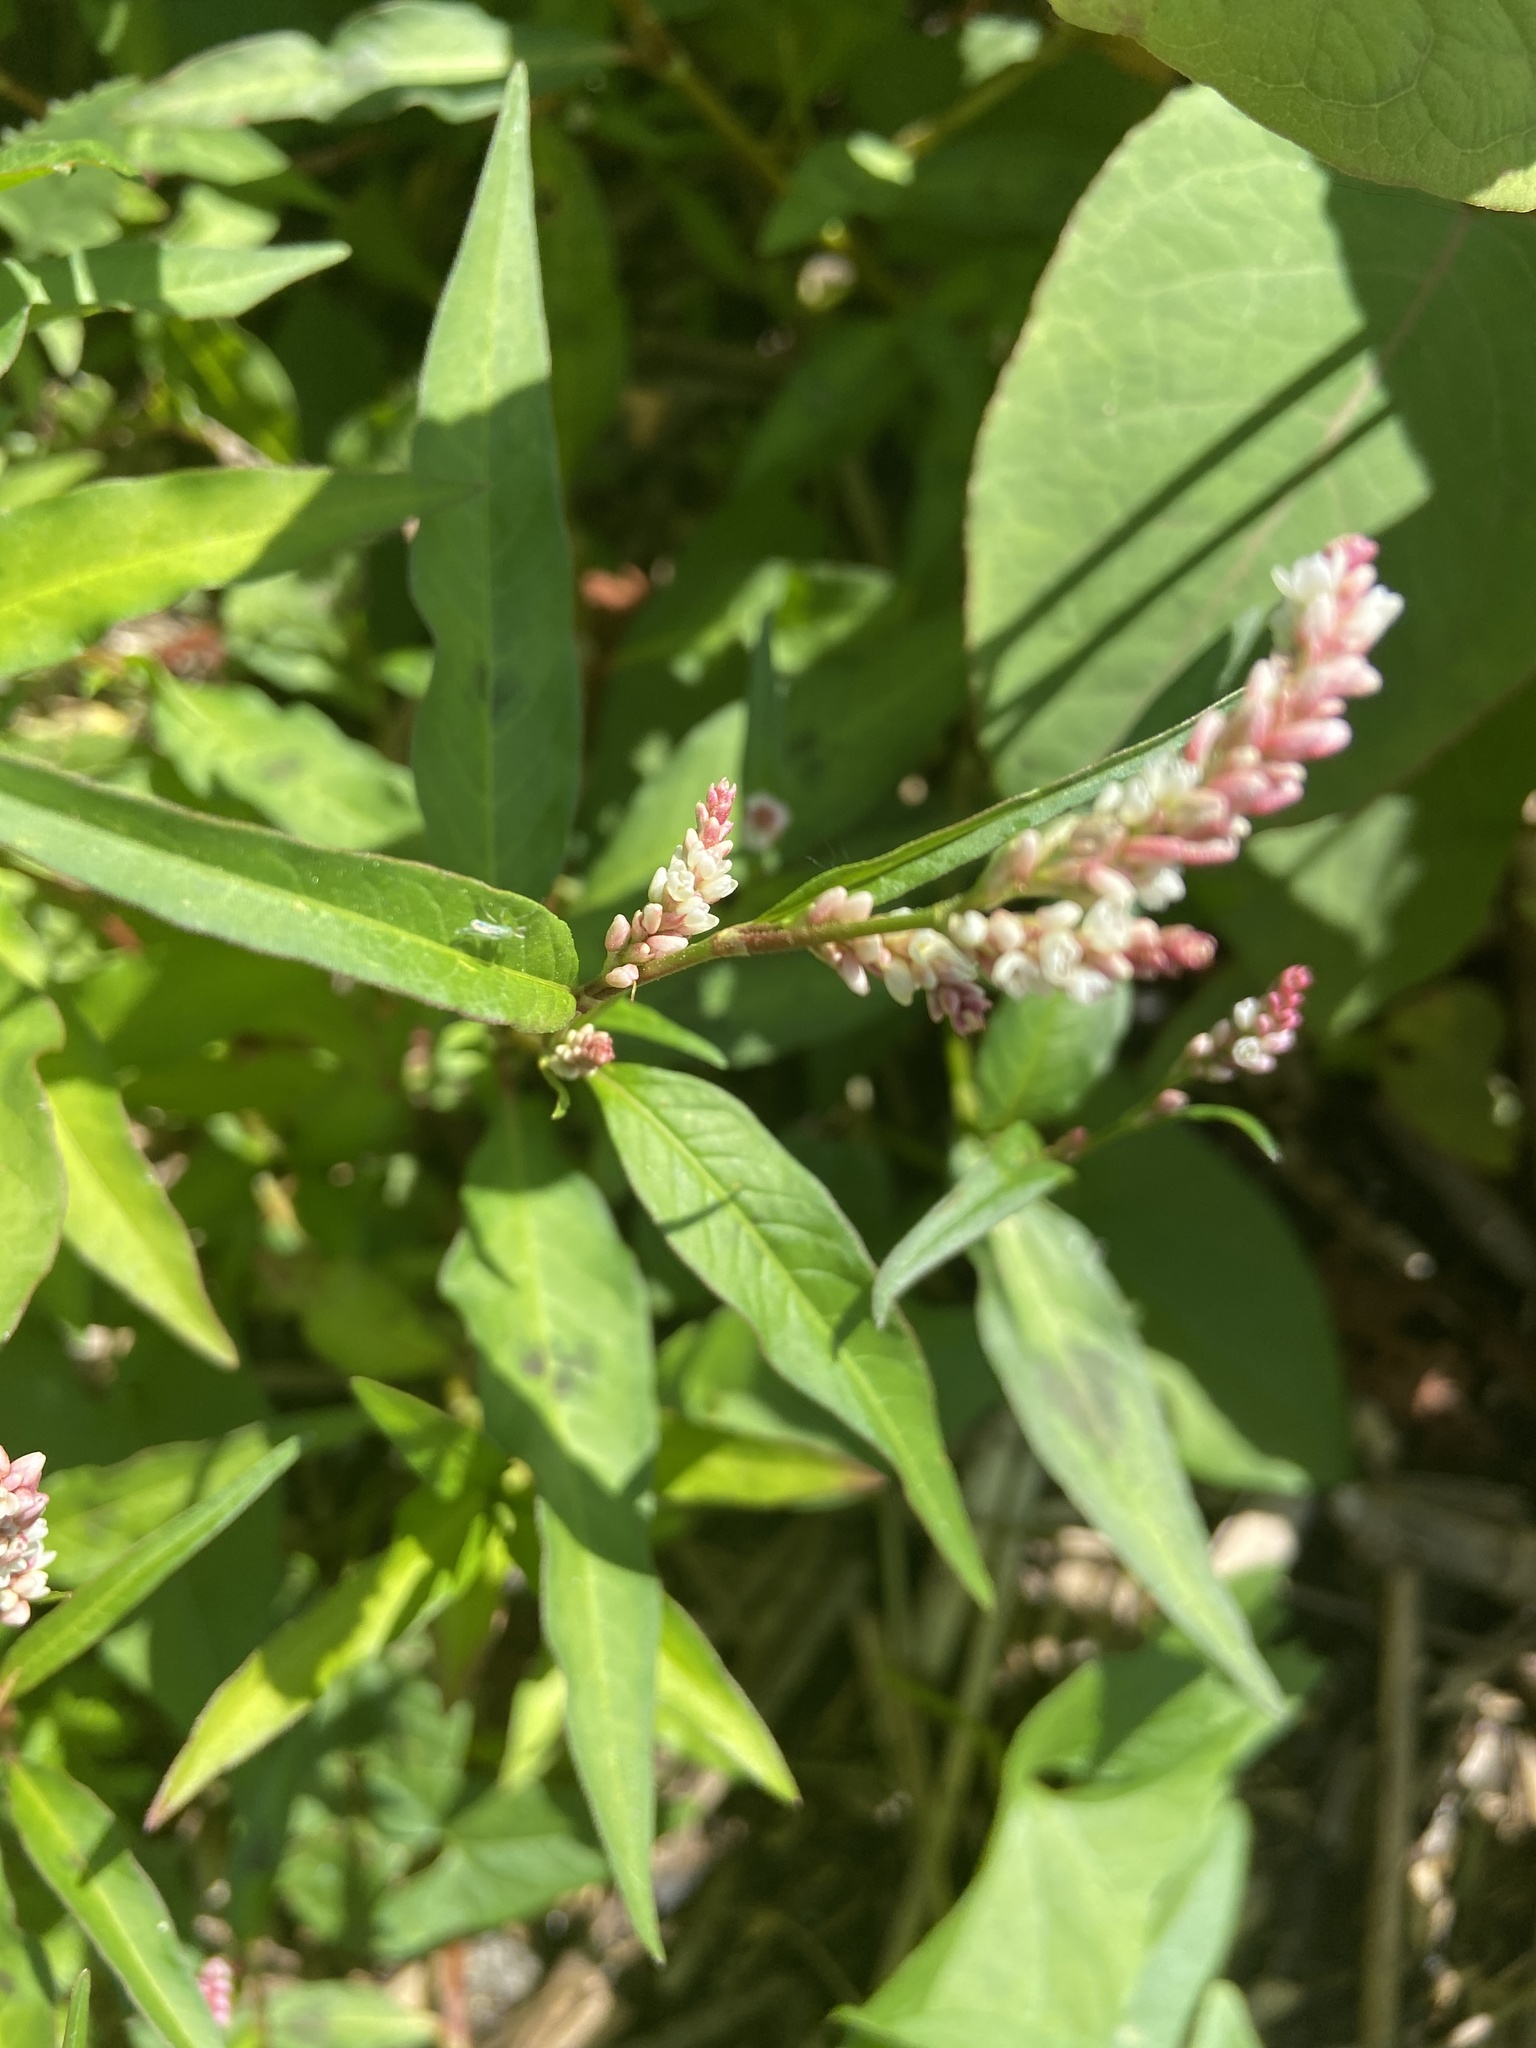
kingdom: Plantae
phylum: Tracheophyta
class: Magnoliopsida
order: Caryophyllales
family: Polygonaceae
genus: Persicaria
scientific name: Persicaria maculosa
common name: Redshank
